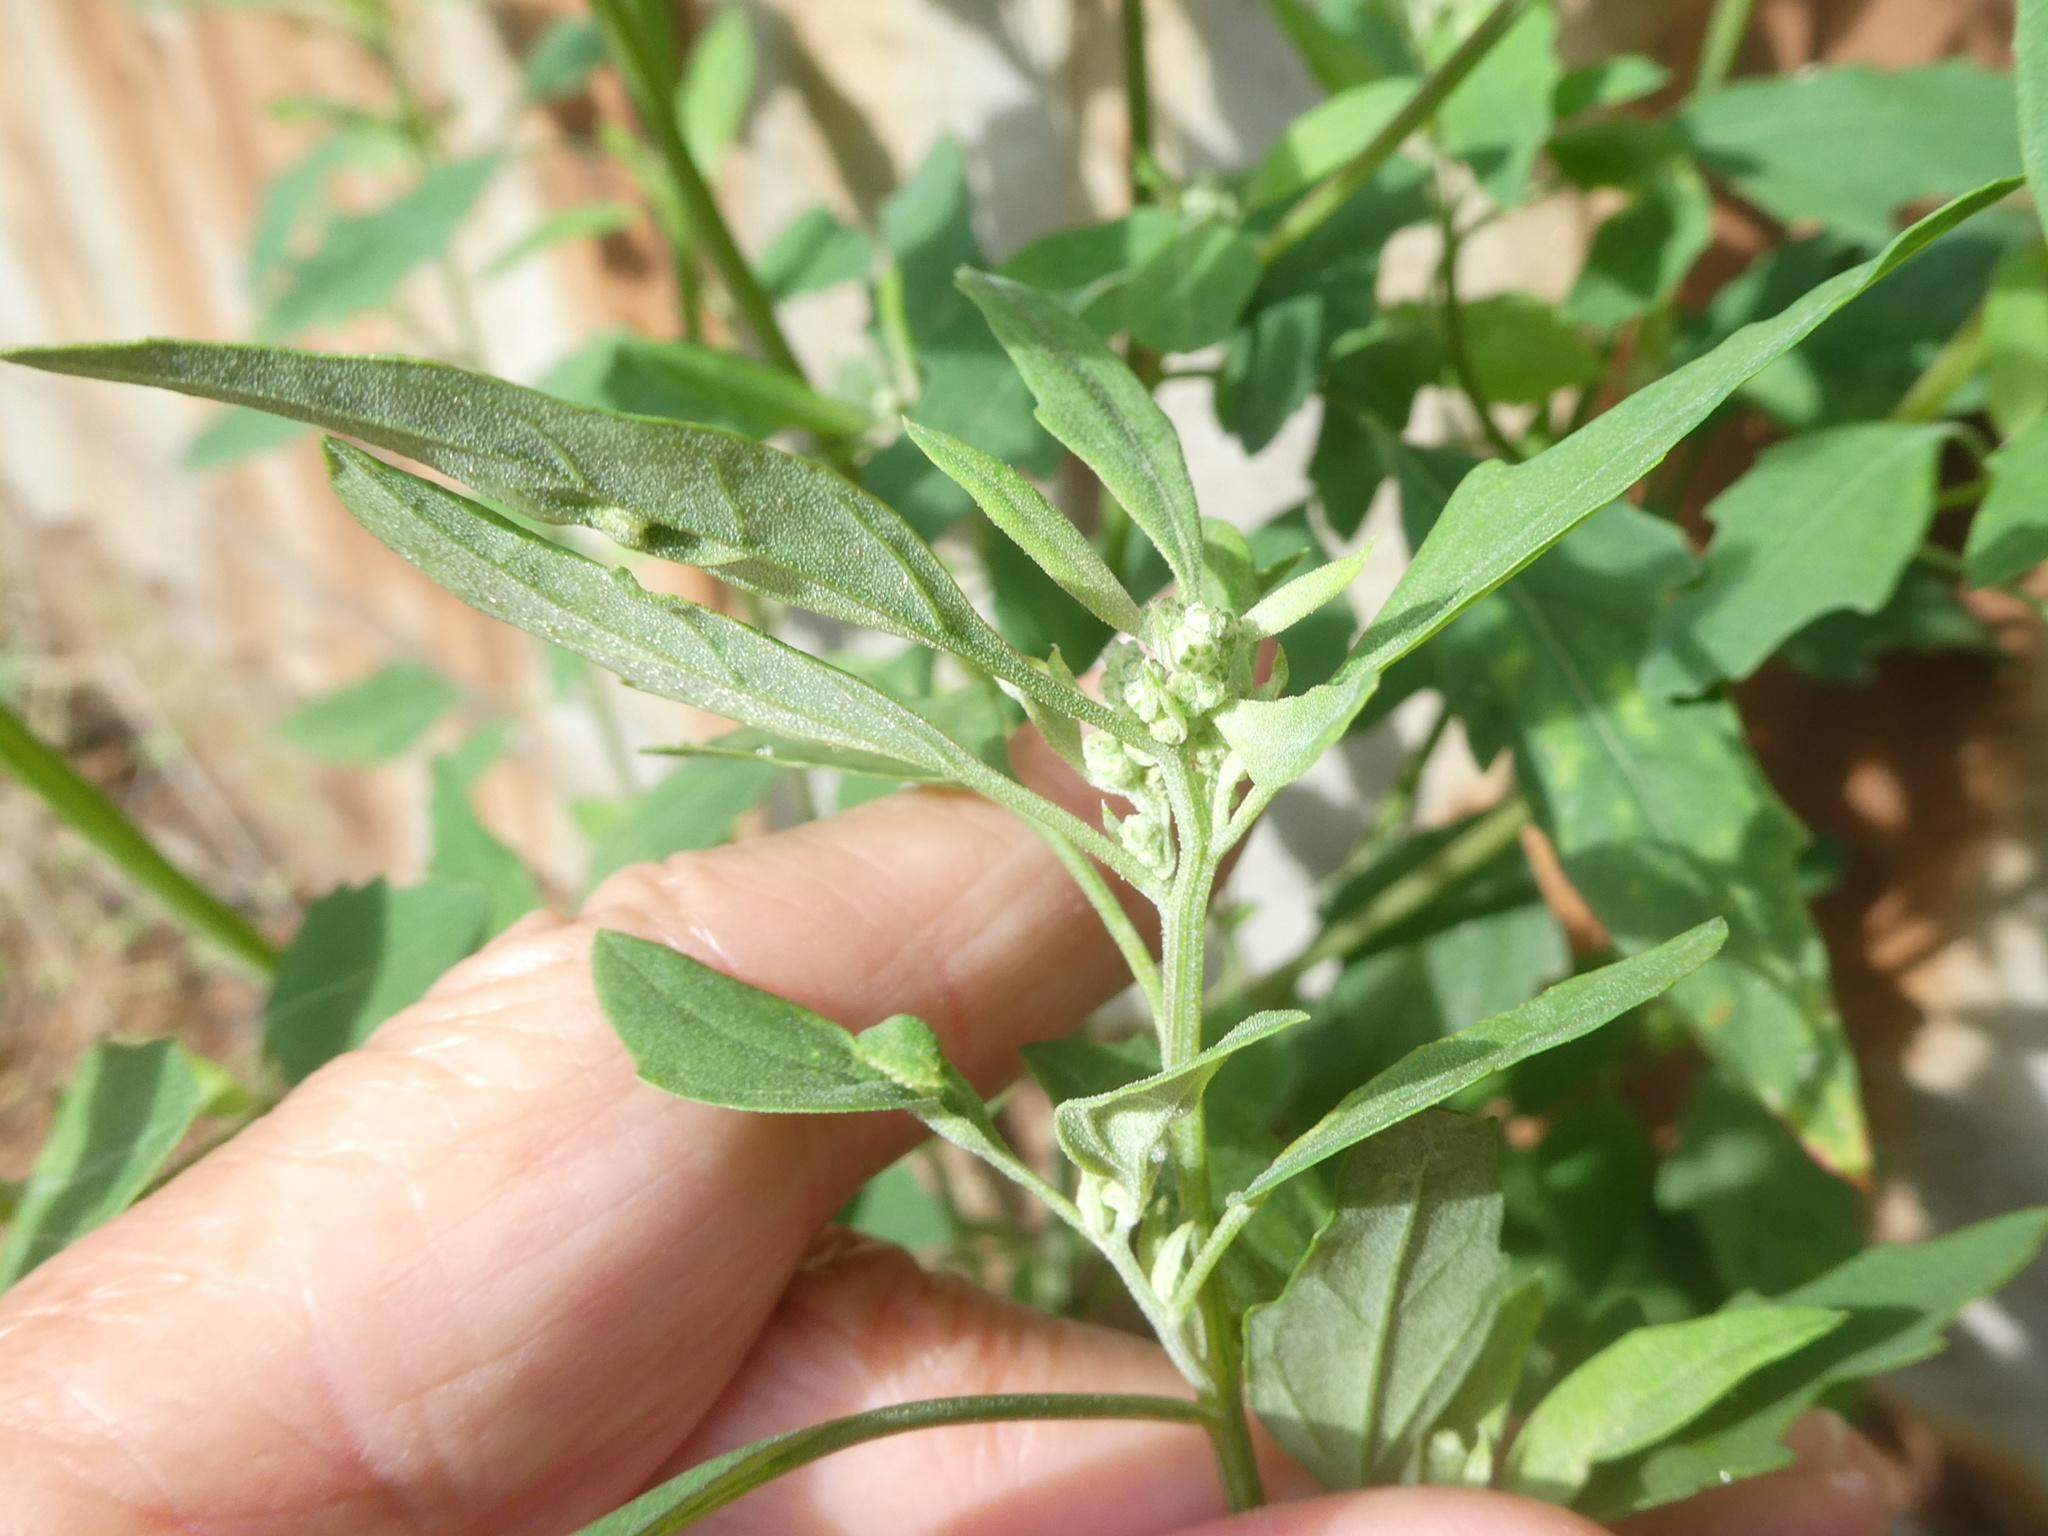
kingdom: Plantae
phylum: Tracheophyta
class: Magnoliopsida
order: Caryophyllales
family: Amaranthaceae
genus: Chenopodium
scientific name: Chenopodium album
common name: Fat-hen
